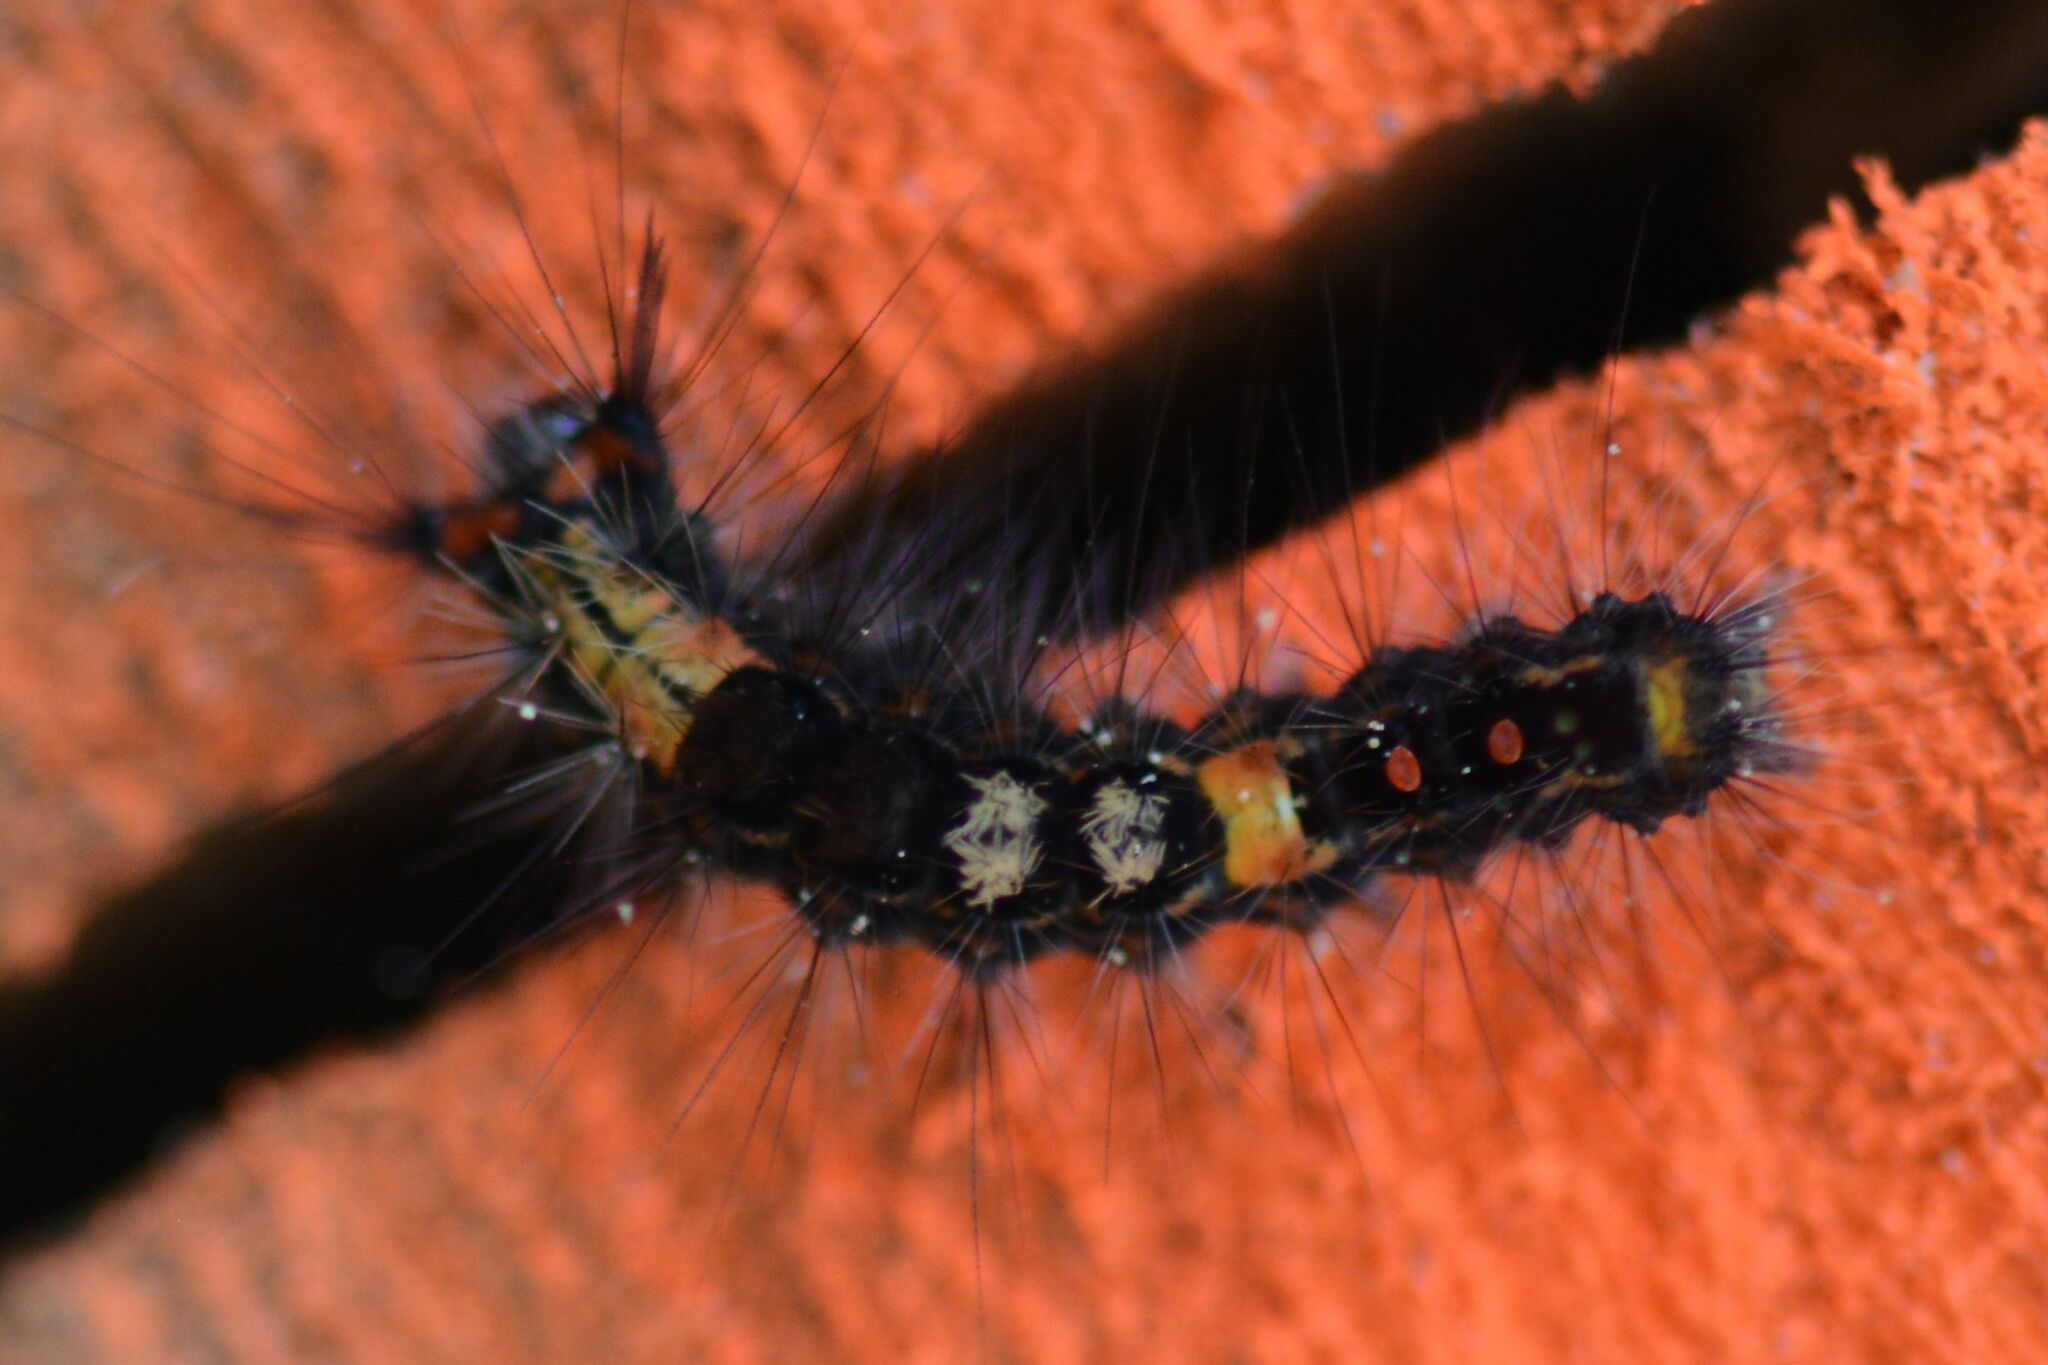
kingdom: Animalia
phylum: Arthropoda
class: Insecta
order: Lepidoptera
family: Erebidae
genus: Orgyia
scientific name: Orgyia antiqua
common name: Vapourer
